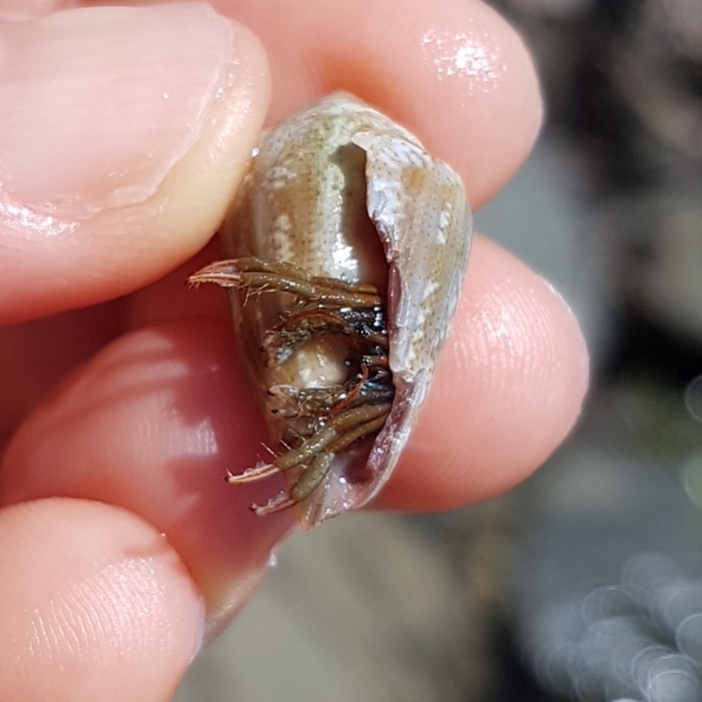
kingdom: Animalia
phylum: Arthropoda
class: Malacostraca
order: Decapoda
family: Diogenidae
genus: Clibanarius
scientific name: Clibanarius erythropus
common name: Hermit crab
